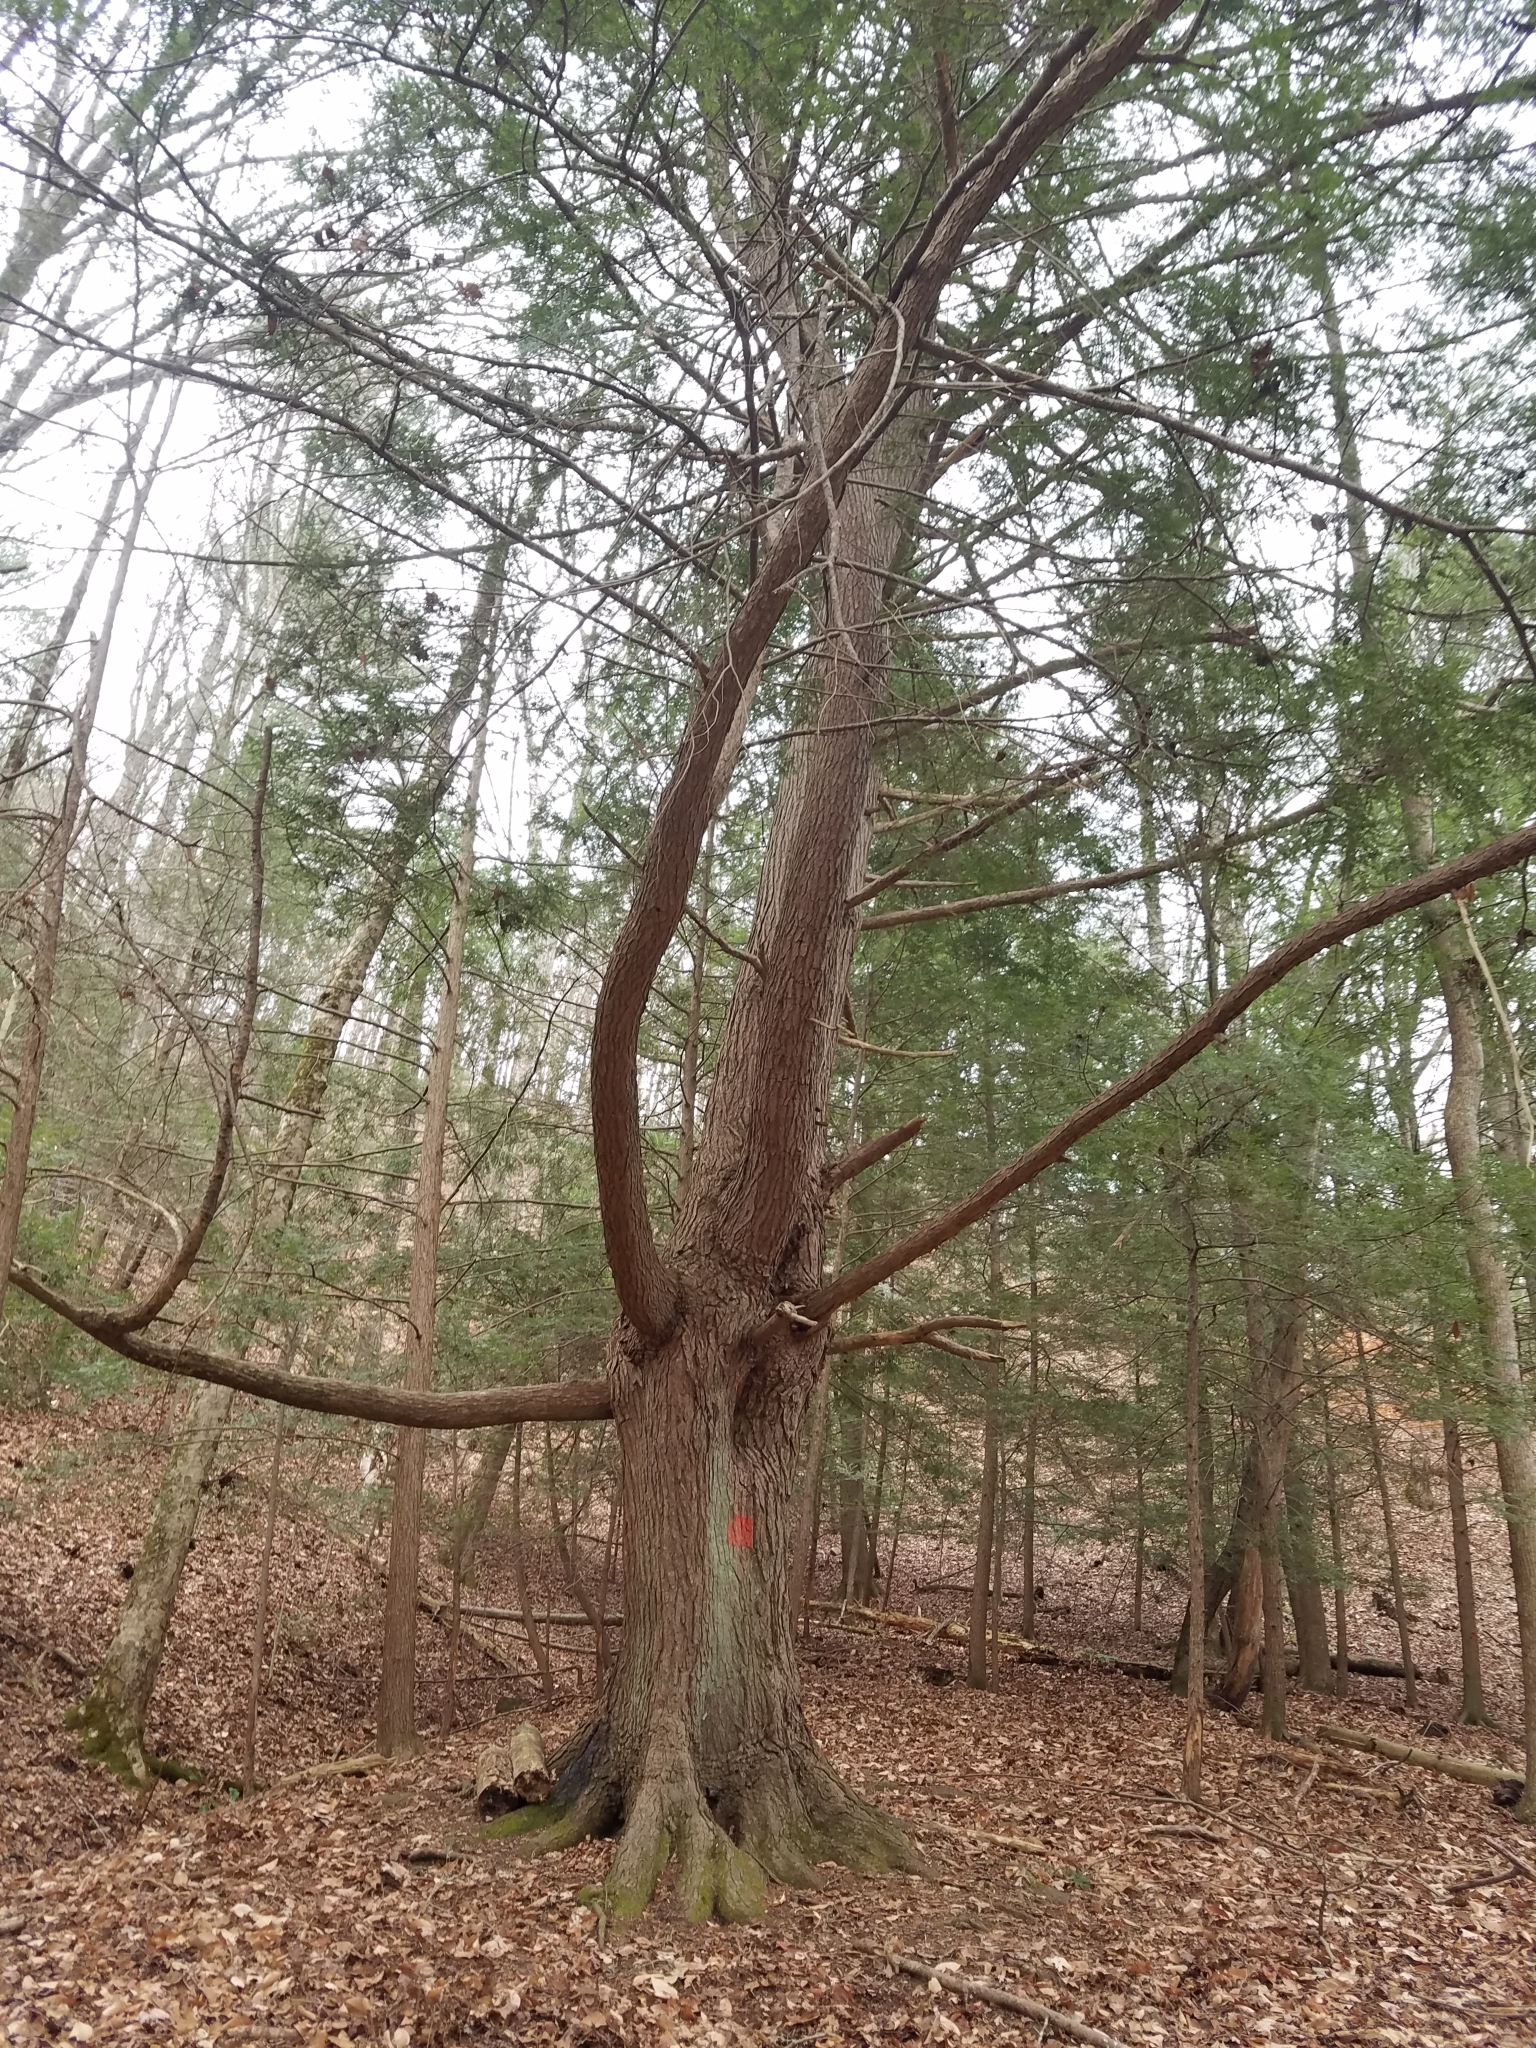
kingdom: Plantae
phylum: Tracheophyta
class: Pinopsida
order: Pinales
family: Pinaceae
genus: Tsuga
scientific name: Tsuga canadensis
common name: Eastern hemlock
